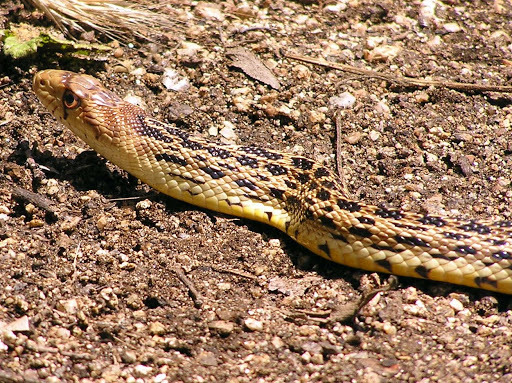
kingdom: Animalia
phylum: Chordata
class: Squamata
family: Colubridae
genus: Pituophis
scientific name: Pituophis catenifer
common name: Gopher snake
